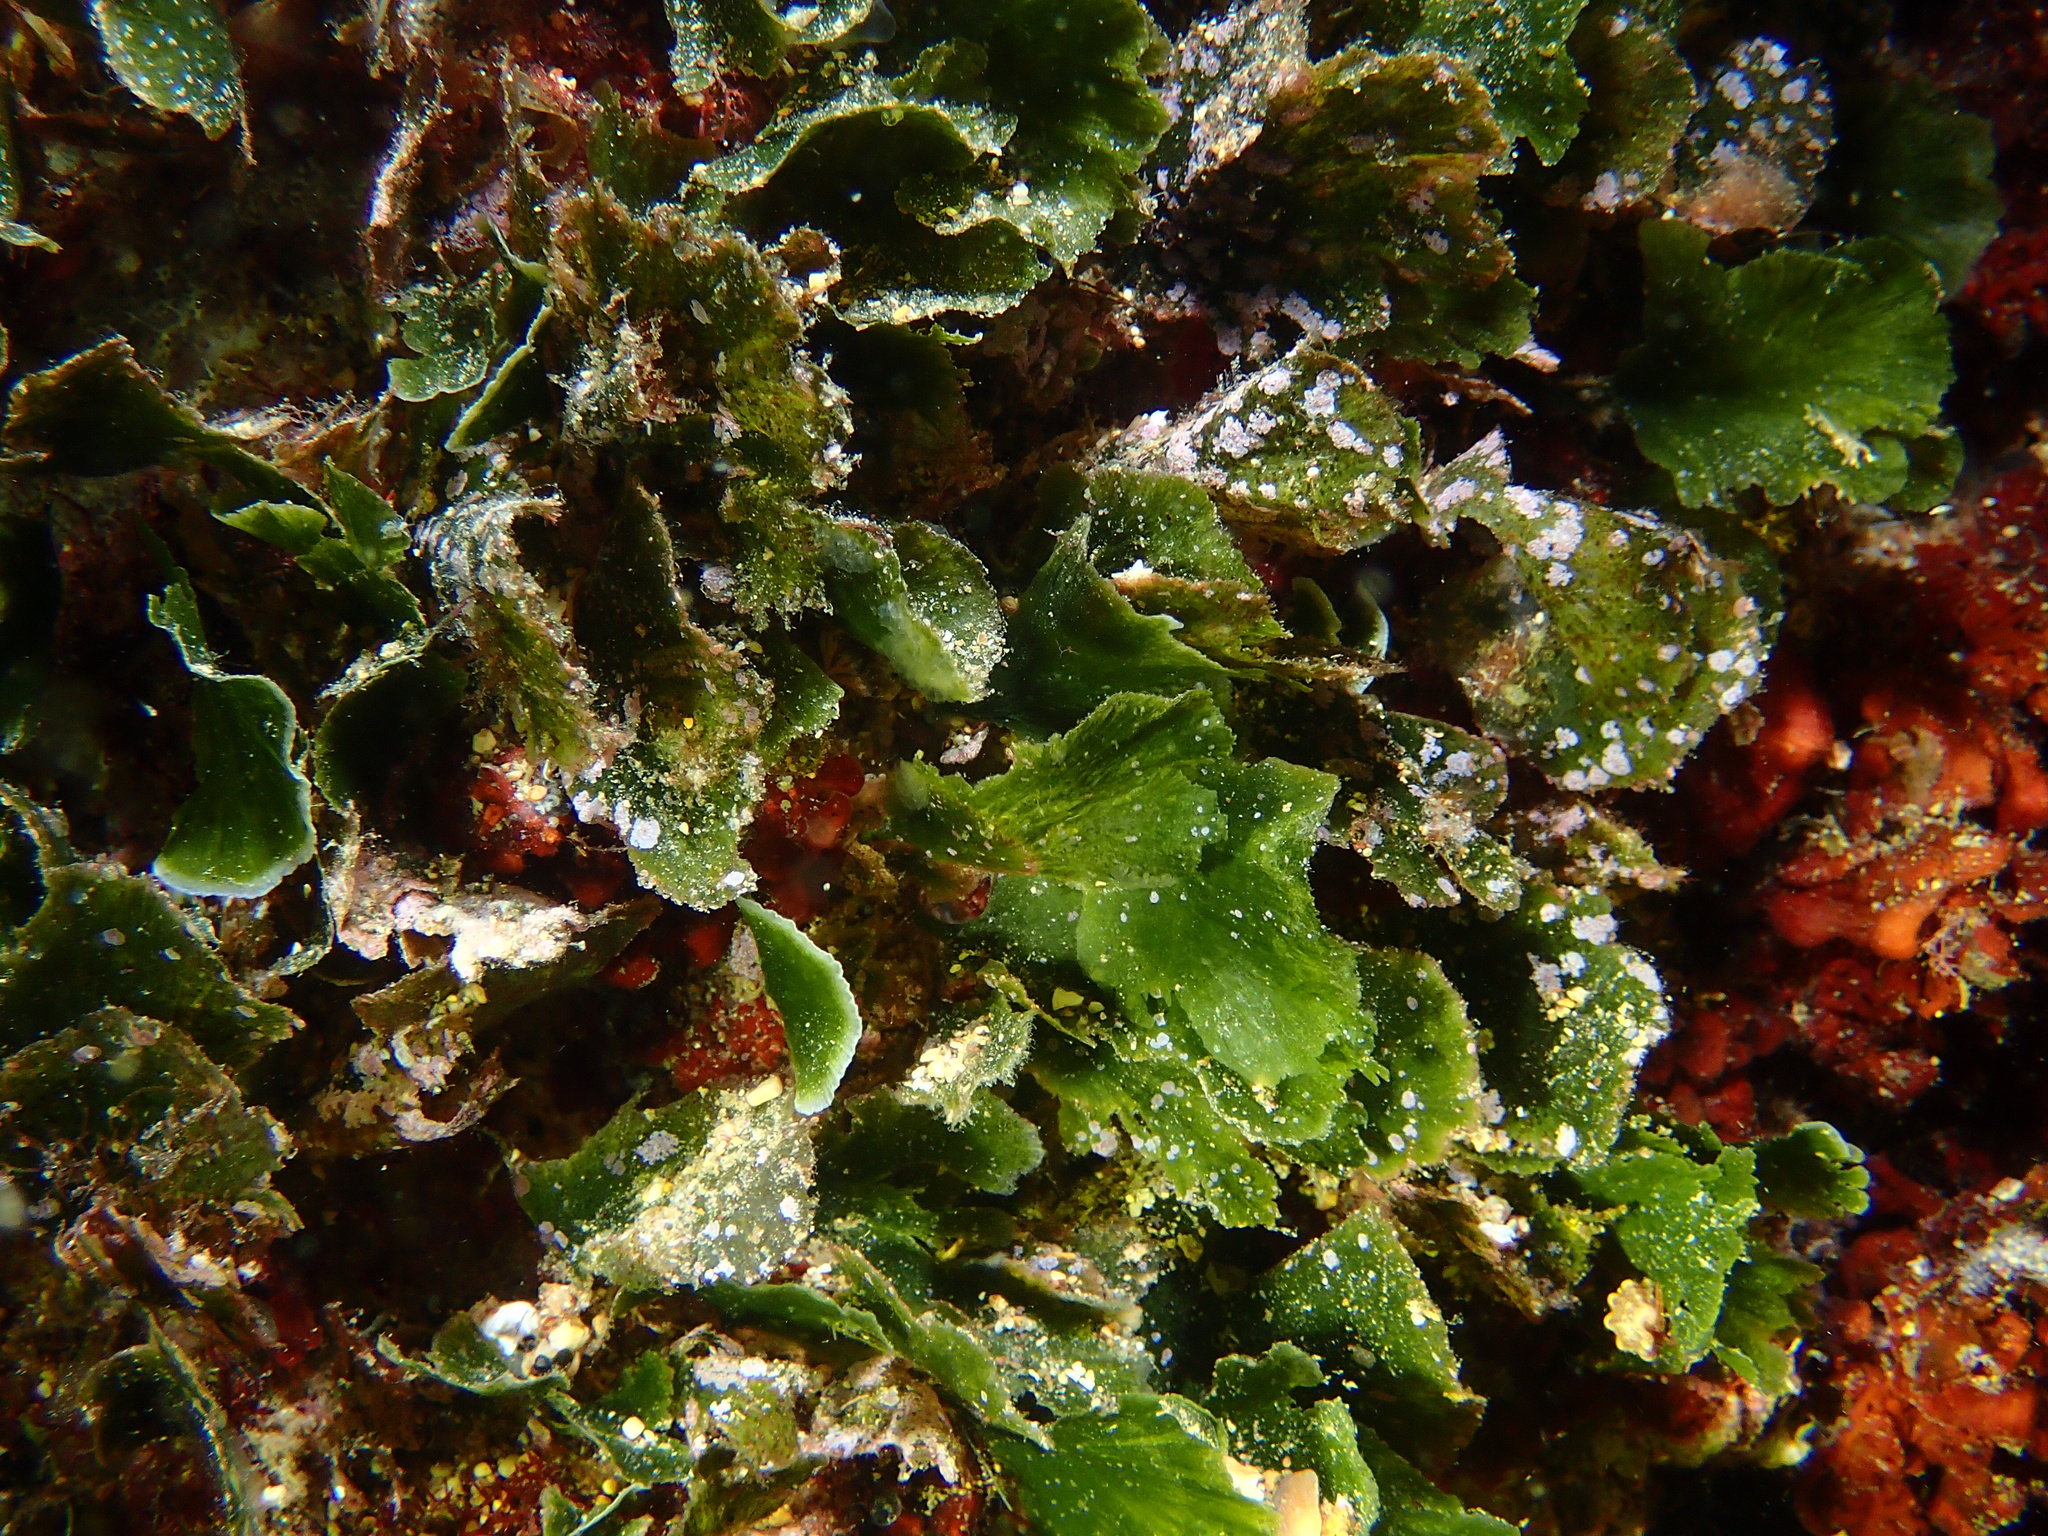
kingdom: Plantae
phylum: Chlorophyta
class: Ulvophyceae
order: Bryopsidales
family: Codiaceae
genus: Codium
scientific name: Codium Flabellia petiolata
